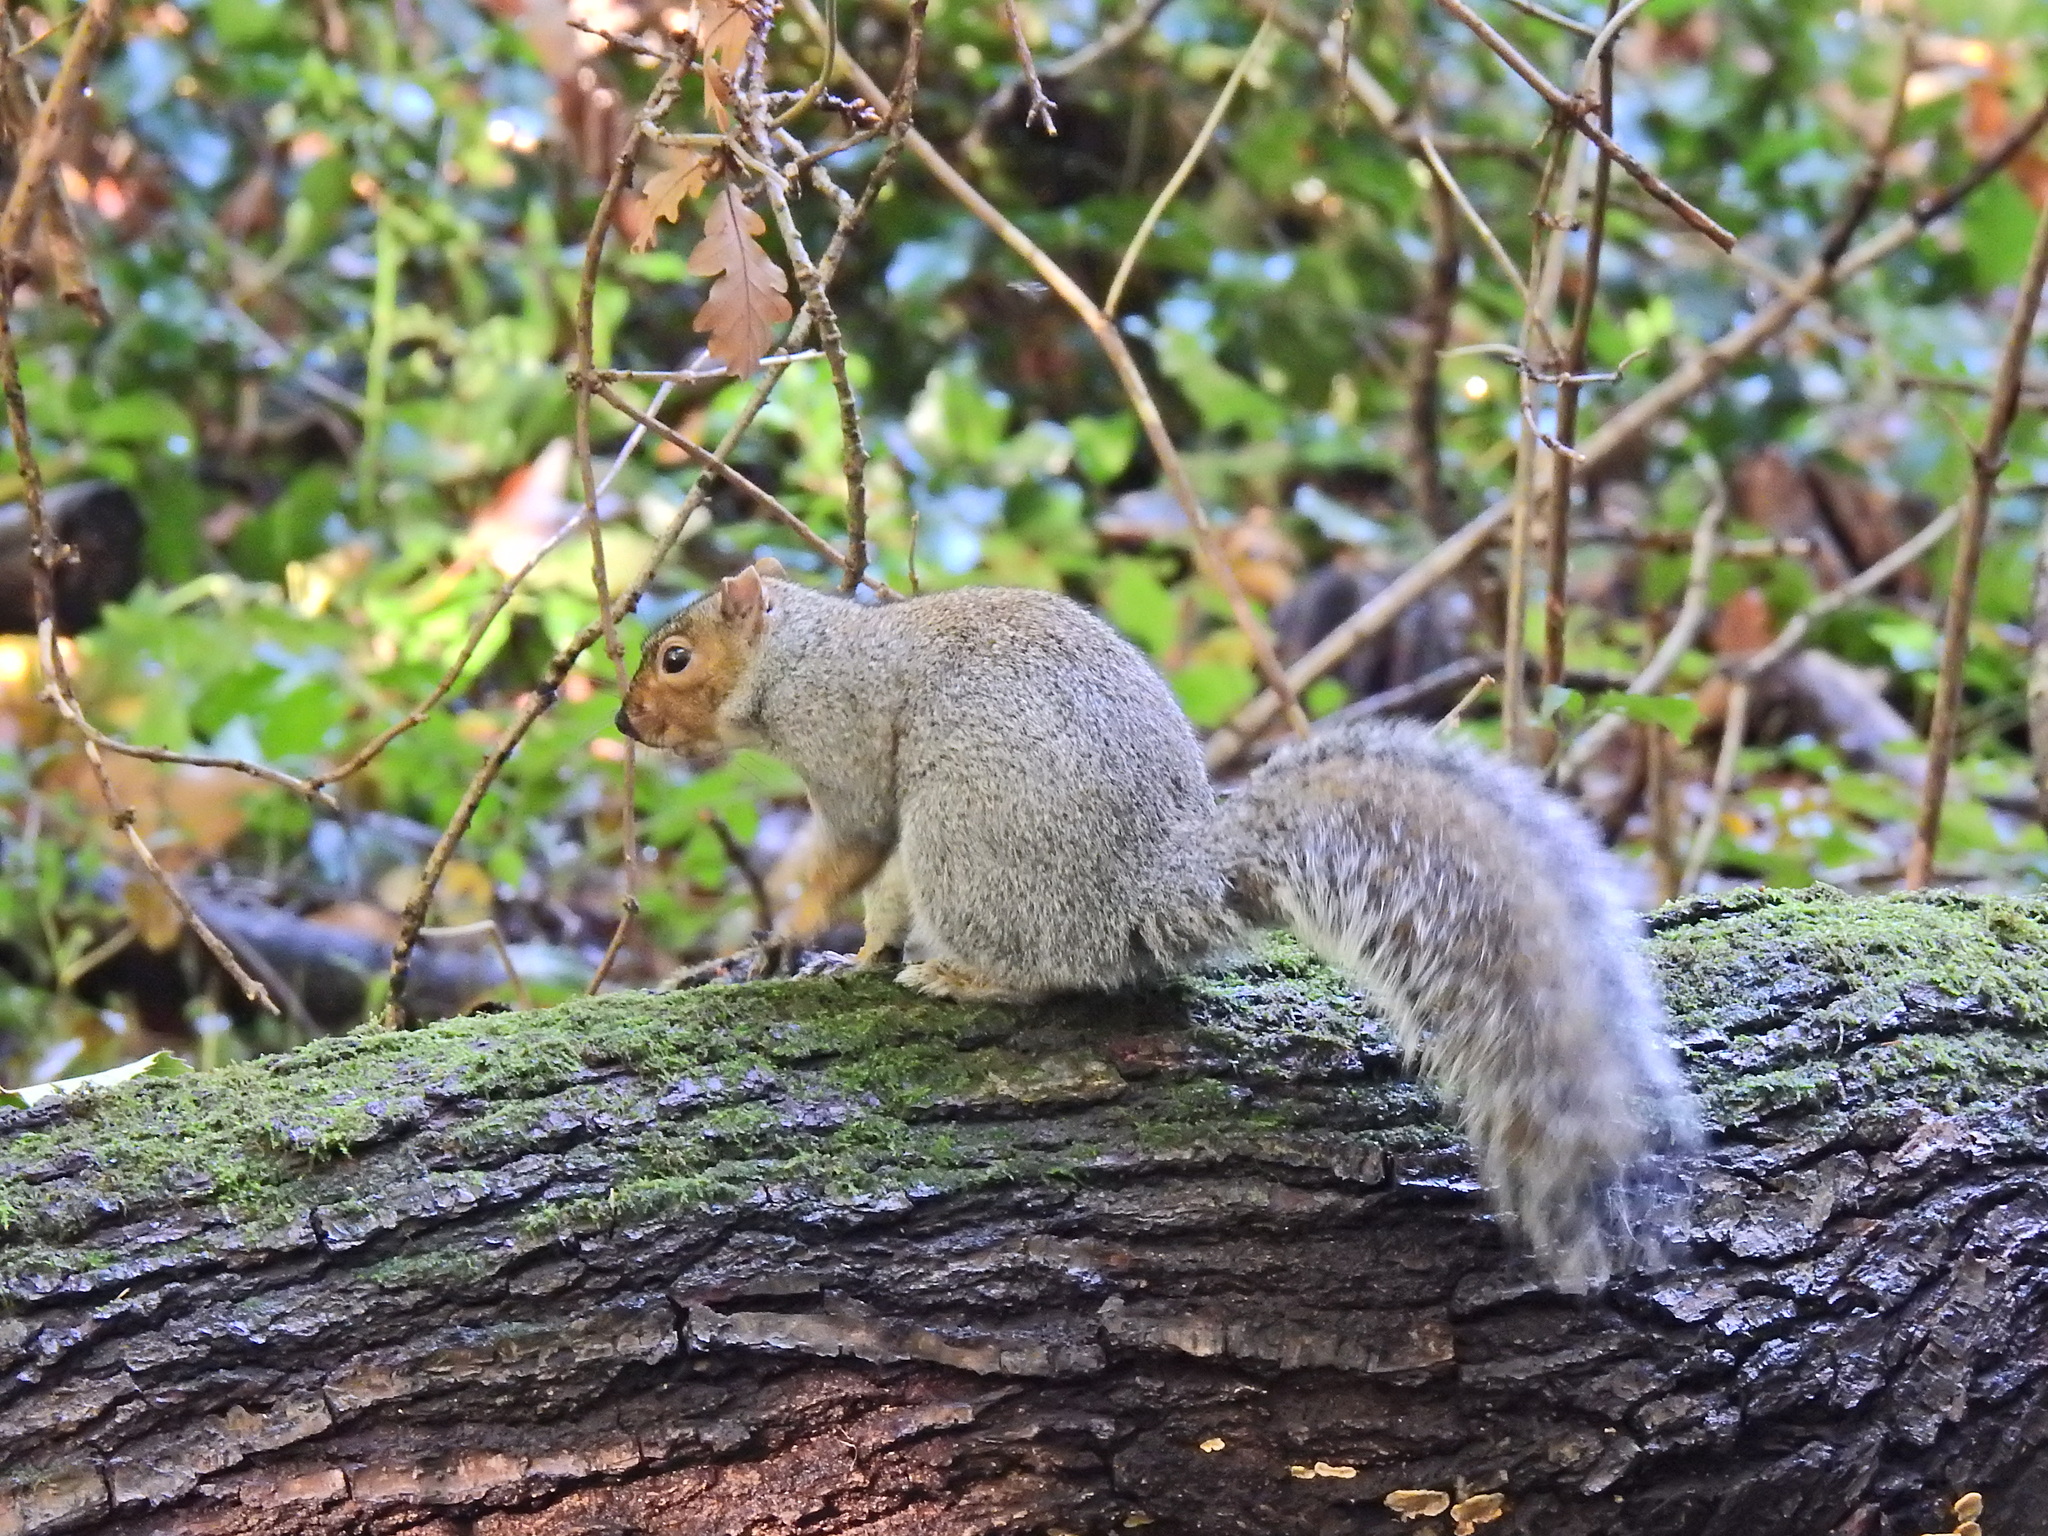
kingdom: Animalia
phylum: Chordata
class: Mammalia
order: Rodentia
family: Sciuridae
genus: Sciurus
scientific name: Sciurus carolinensis
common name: Eastern gray squirrel
